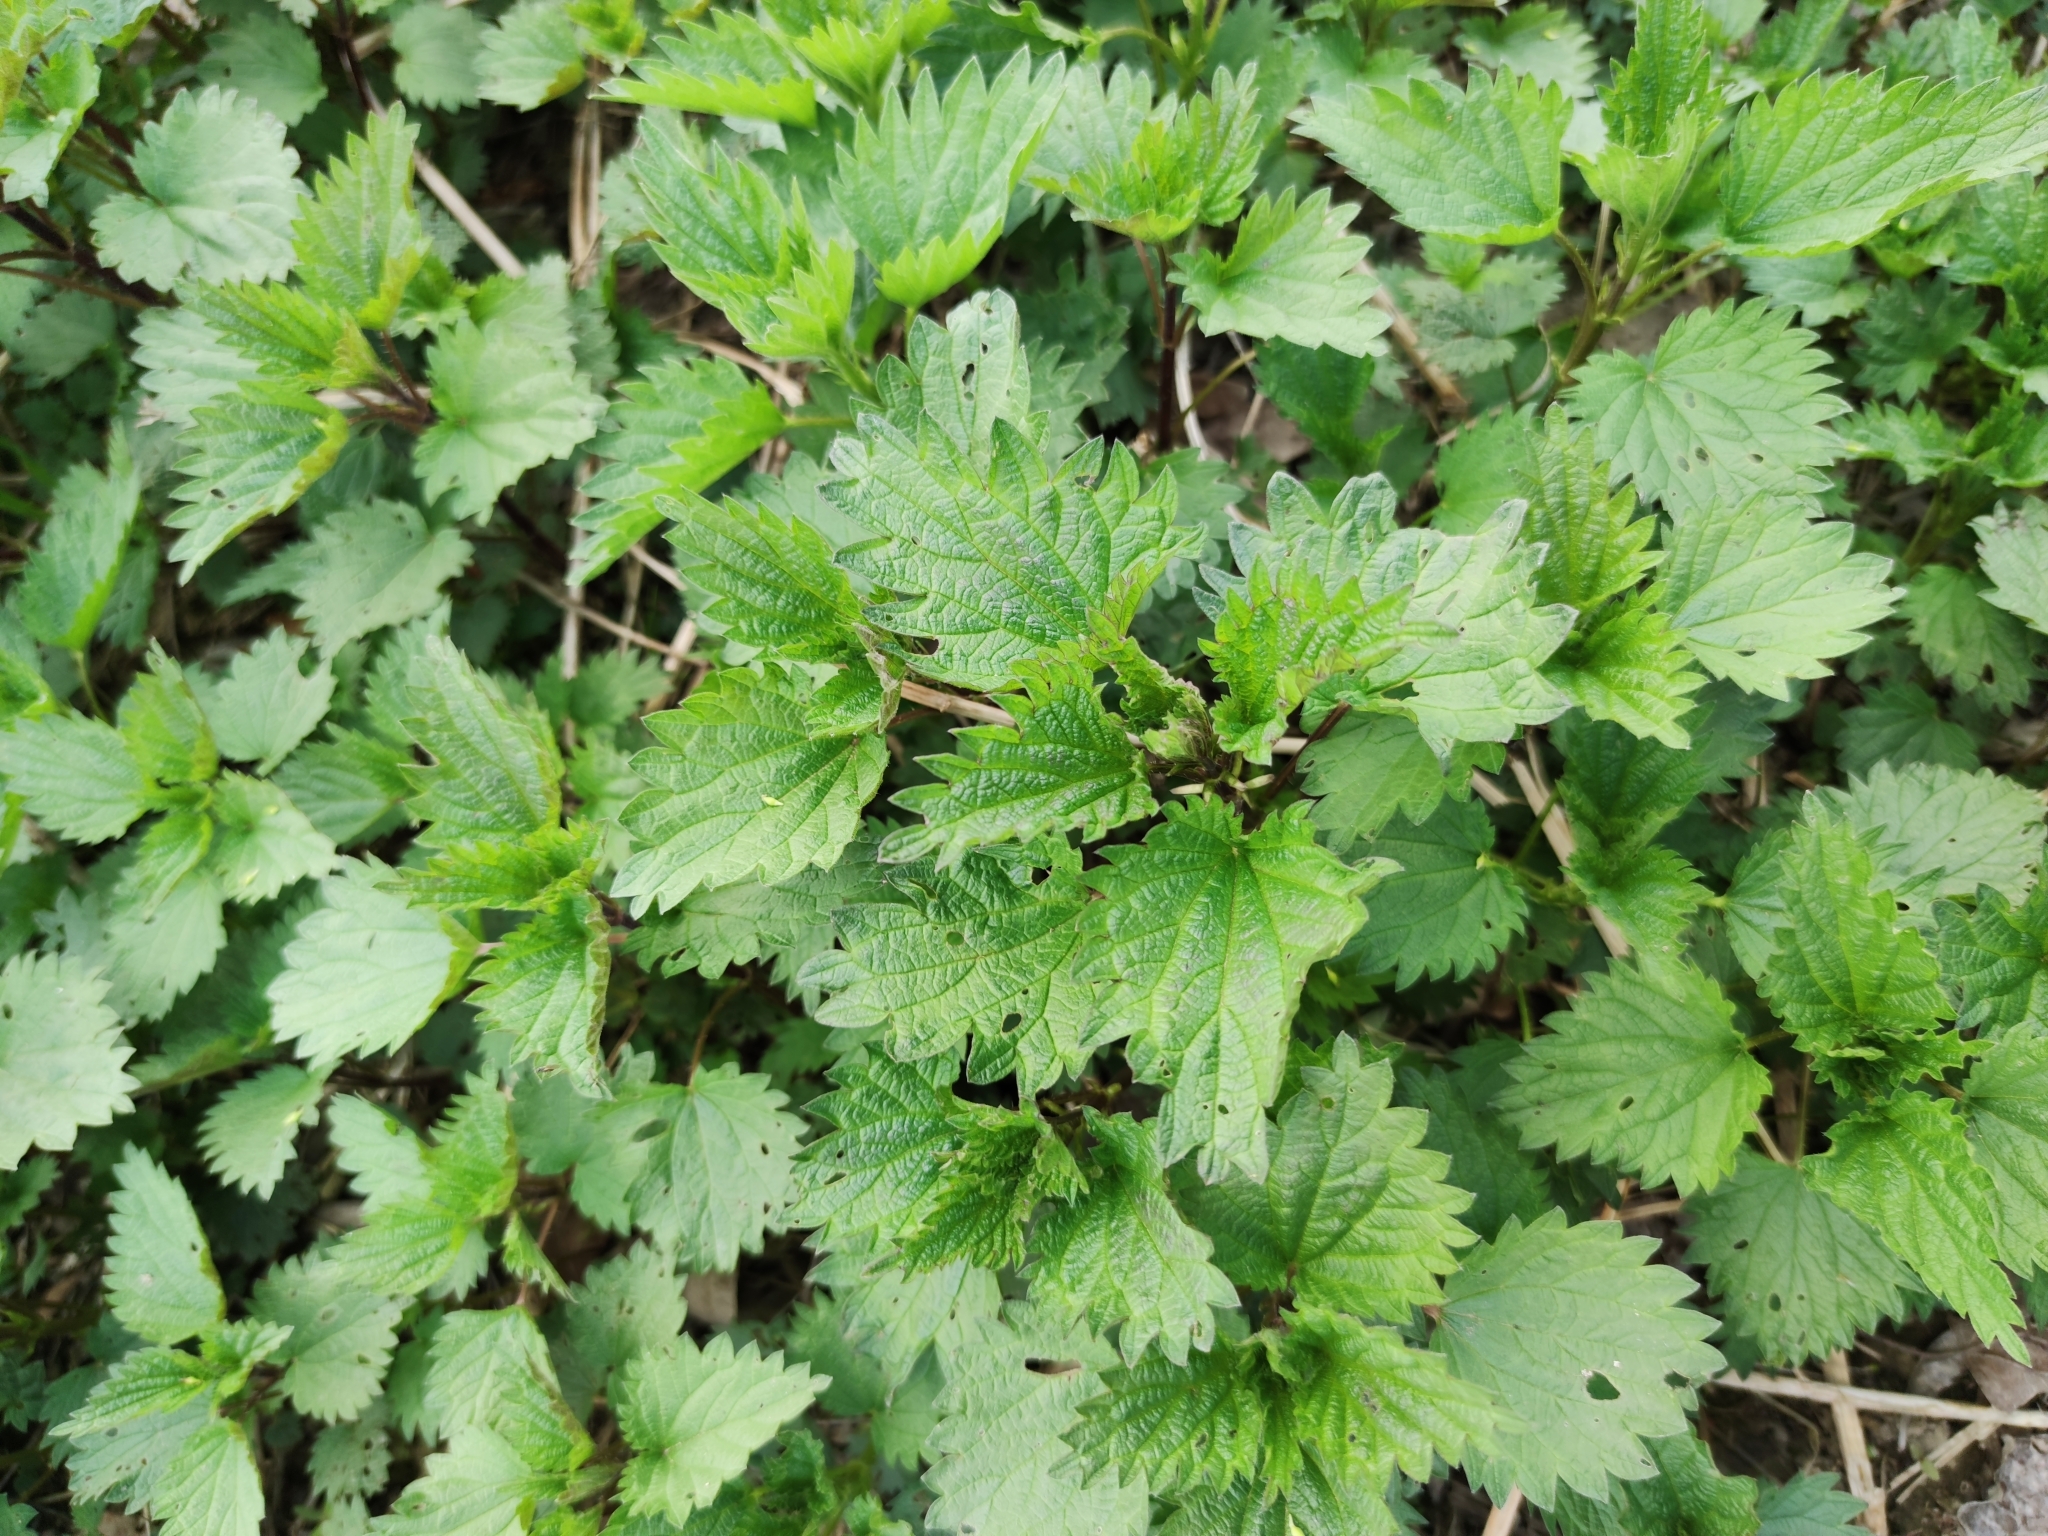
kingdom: Plantae
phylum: Tracheophyta
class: Magnoliopsida
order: Rosales
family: Urticaceae
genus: Urtica
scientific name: Urtica dioica
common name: Common nettle
